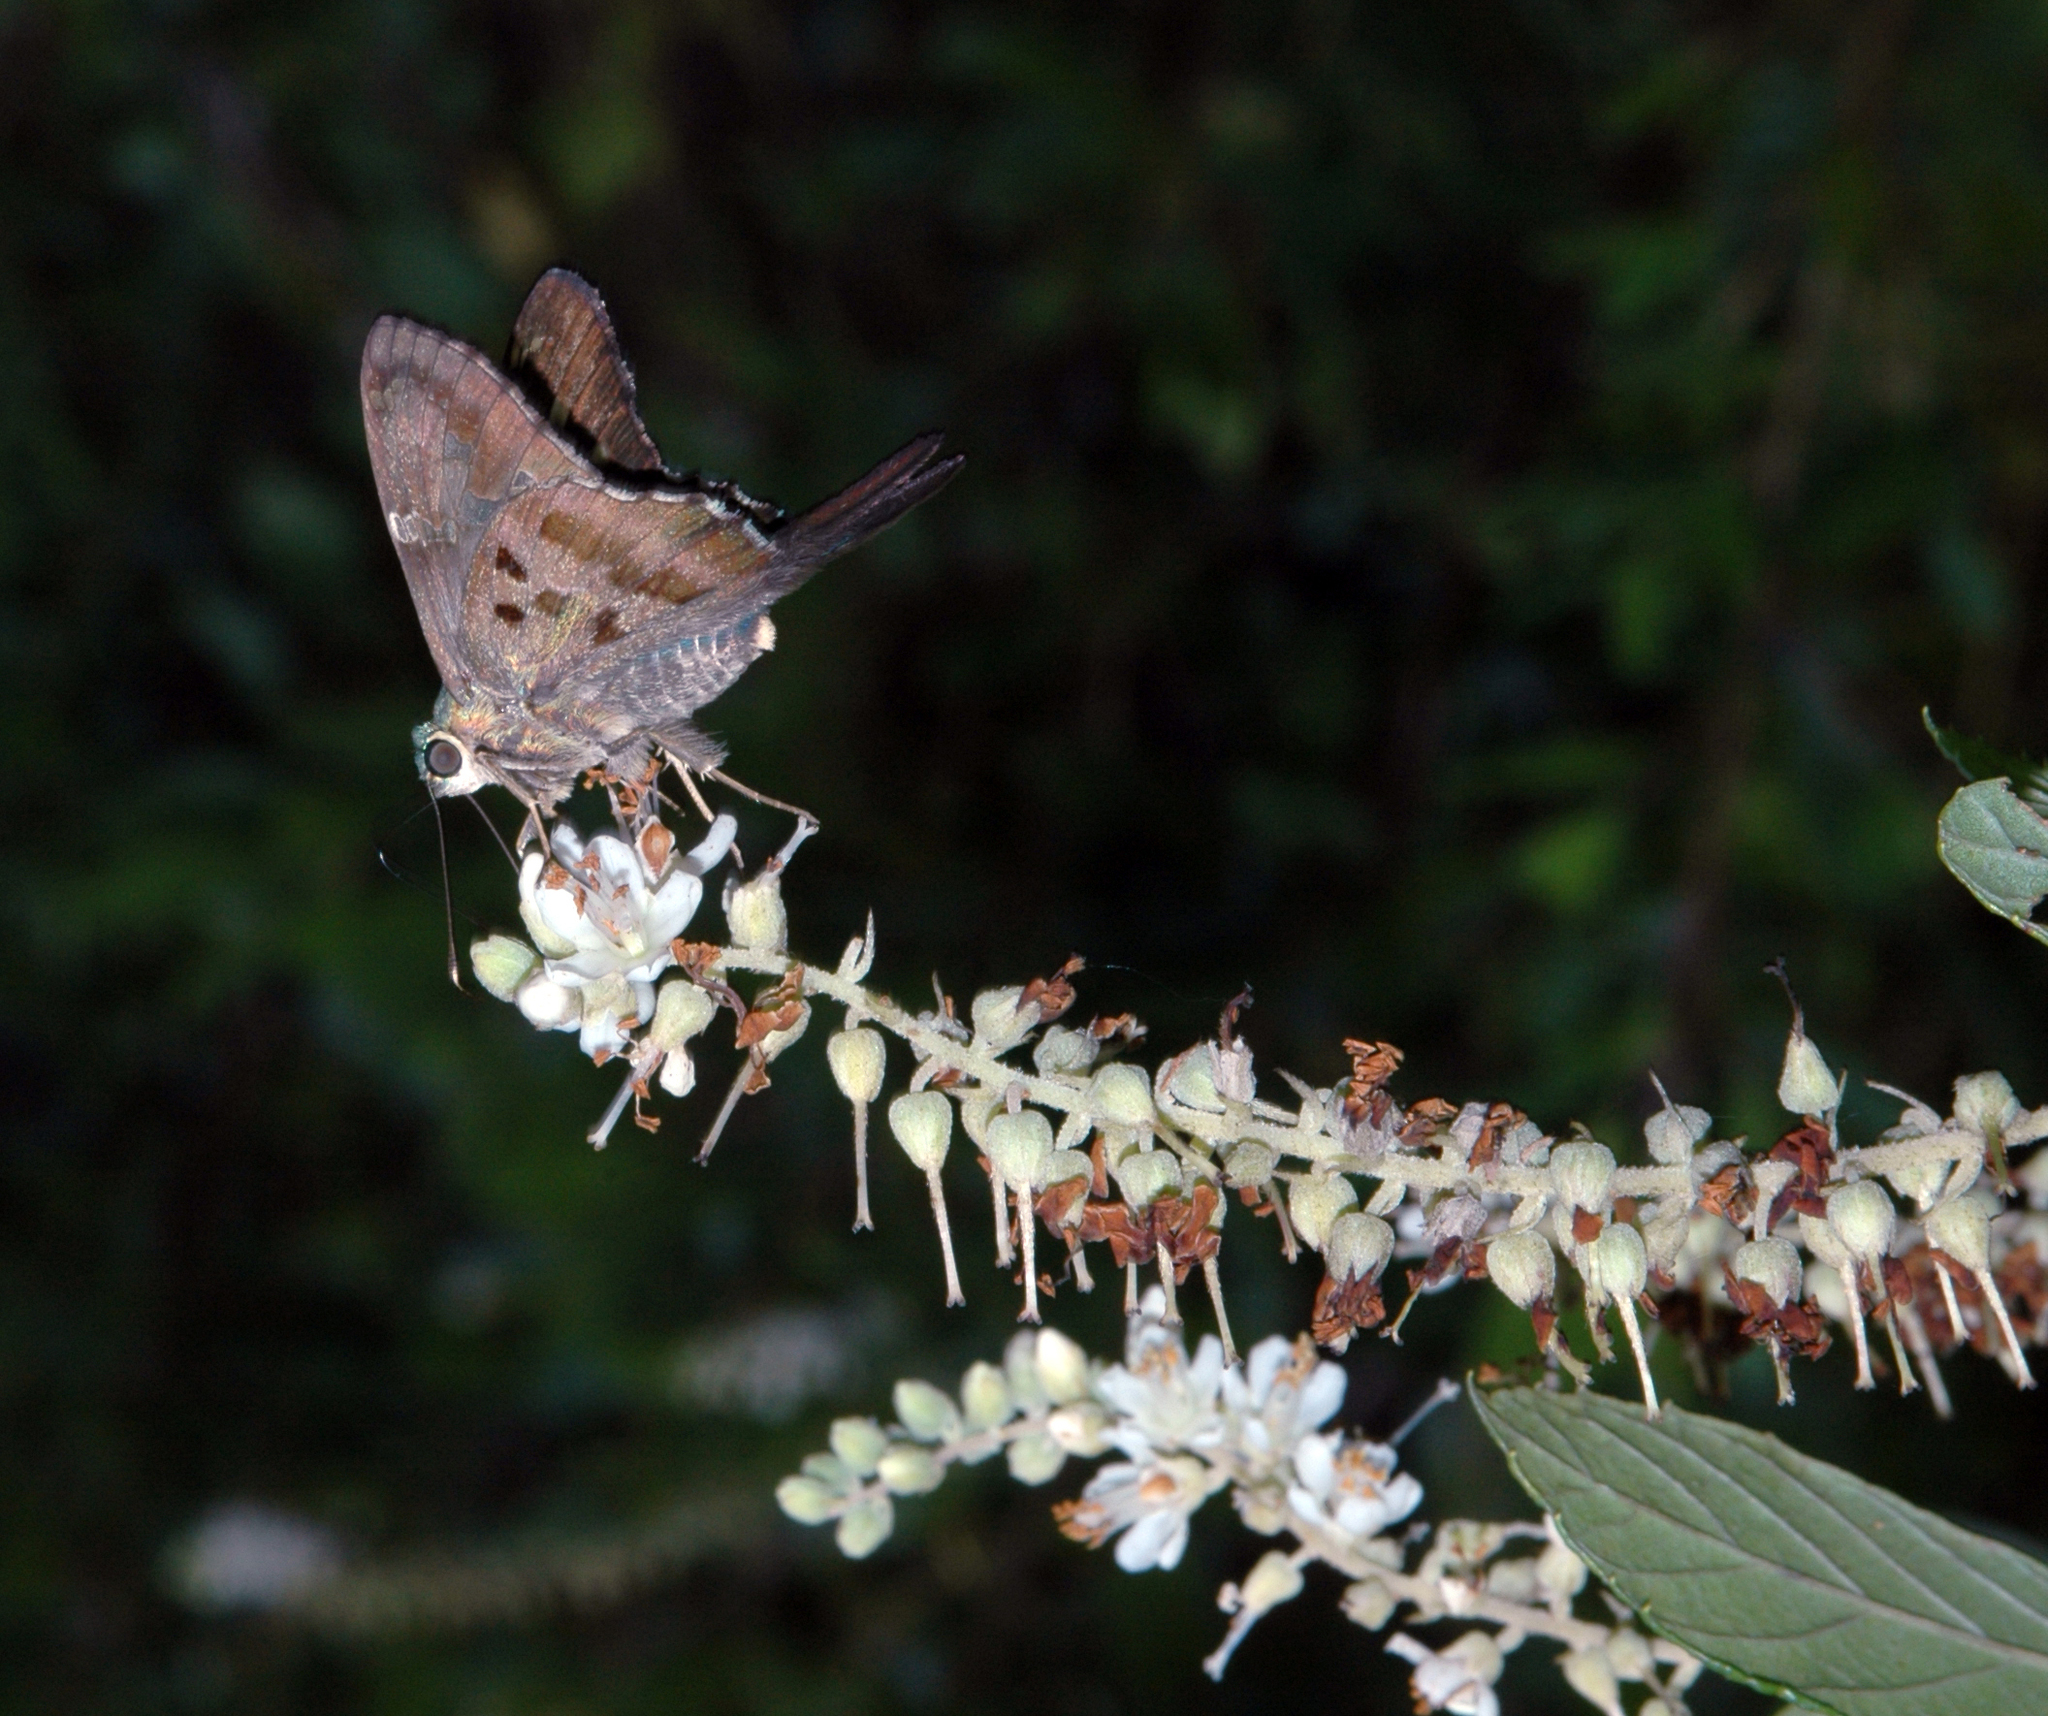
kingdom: Animalia
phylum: Arthropoda
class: Insecta
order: Lepidoptera
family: Hesperiidae
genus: Urbanus
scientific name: Urbanus proteus
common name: Long-tailed skipper
